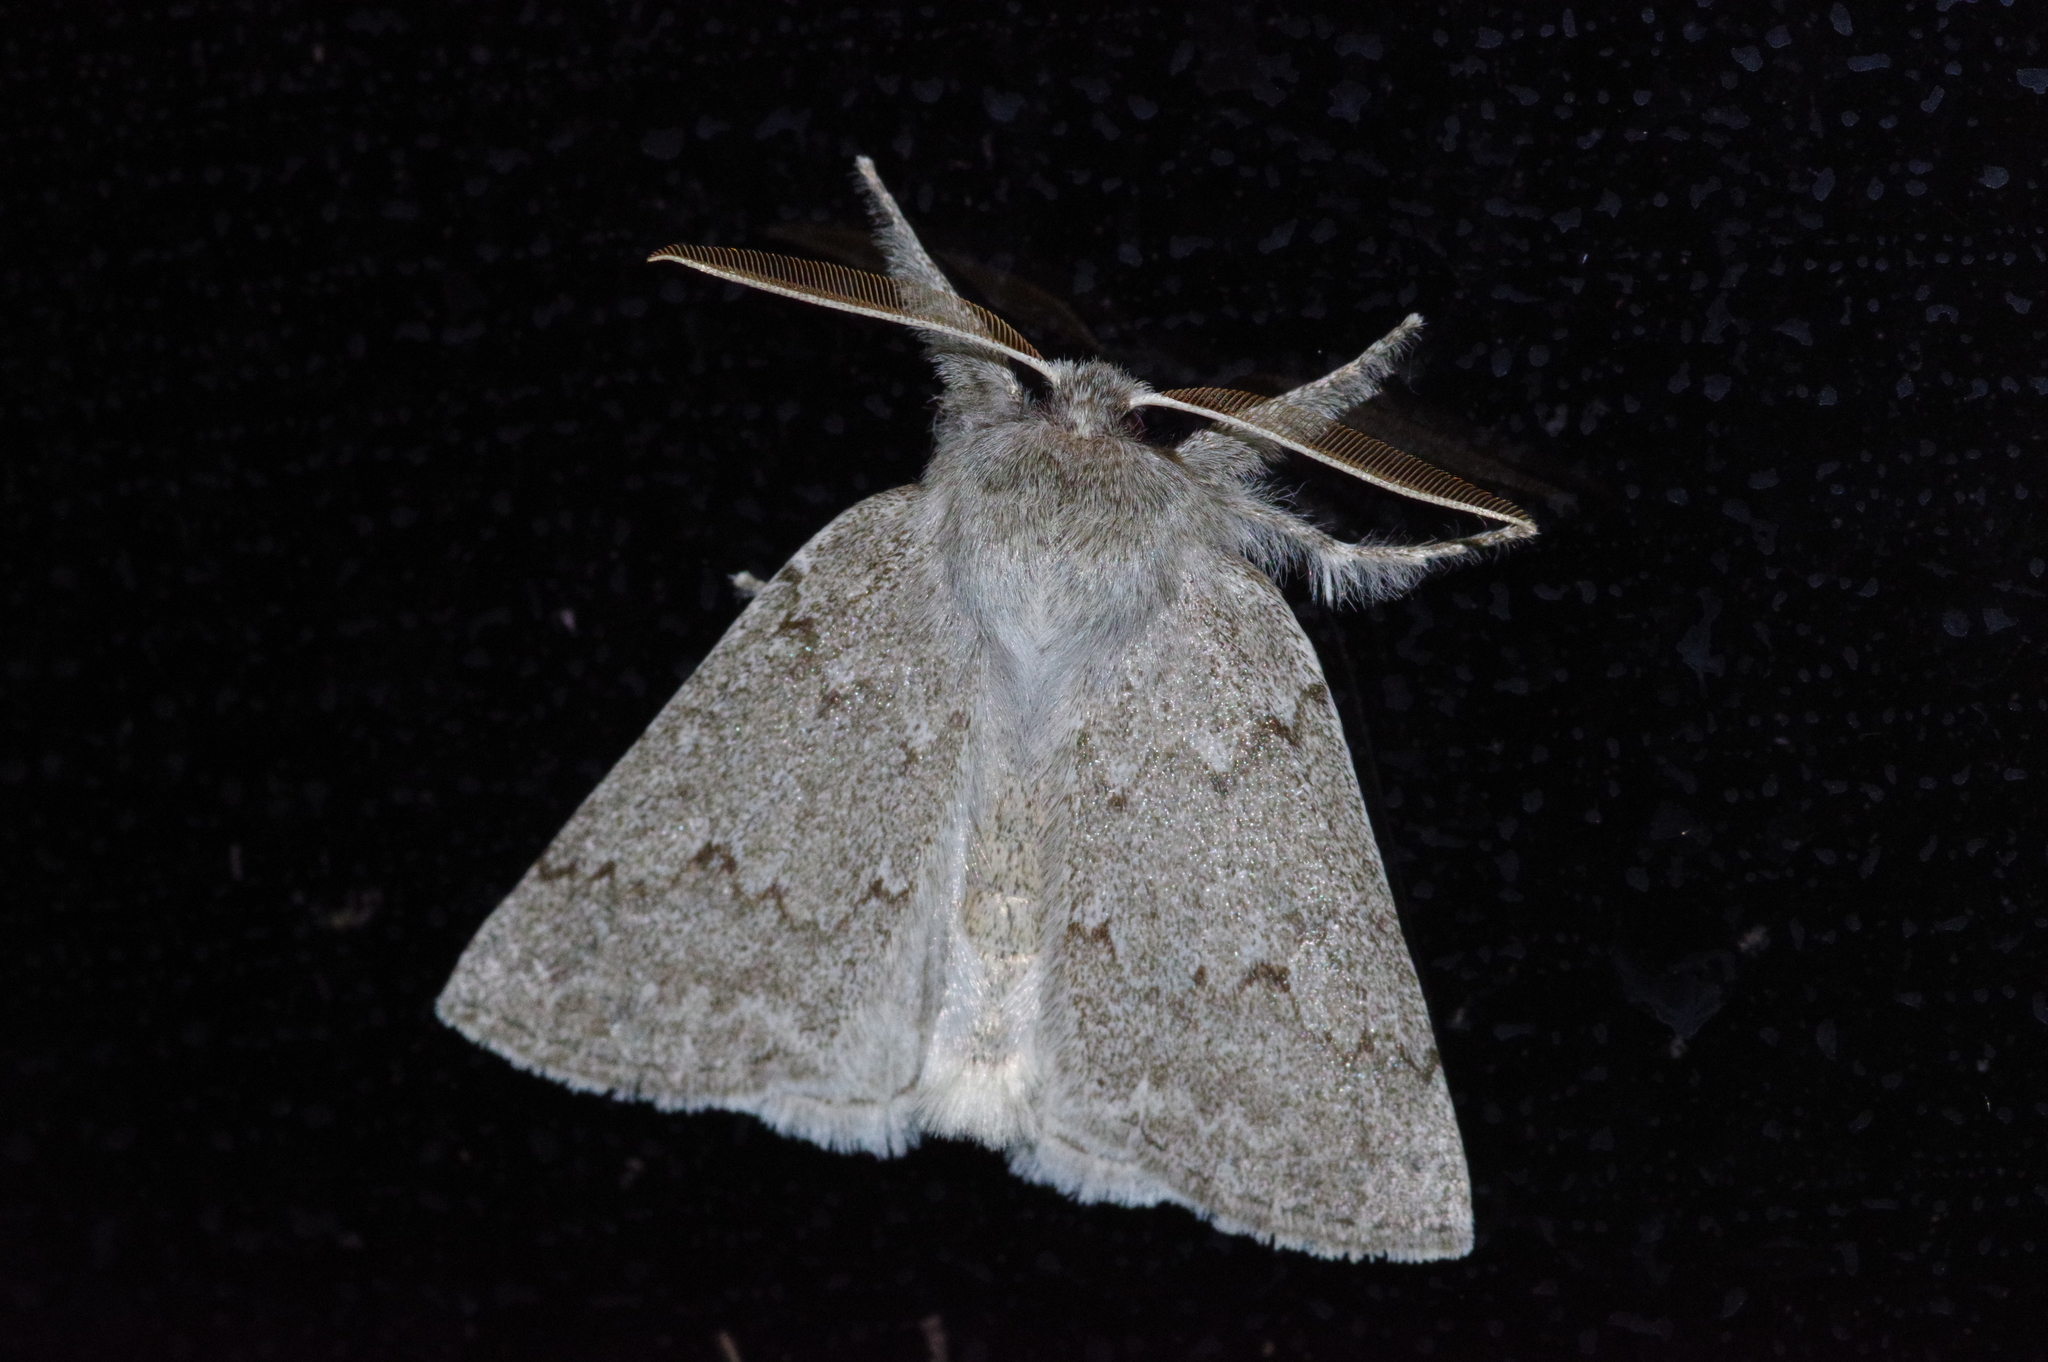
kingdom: Animalia
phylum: Arthropoda
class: Insecta
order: Lepidoptera
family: Geometridae
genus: Planociampa
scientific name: Planociampa antipala
